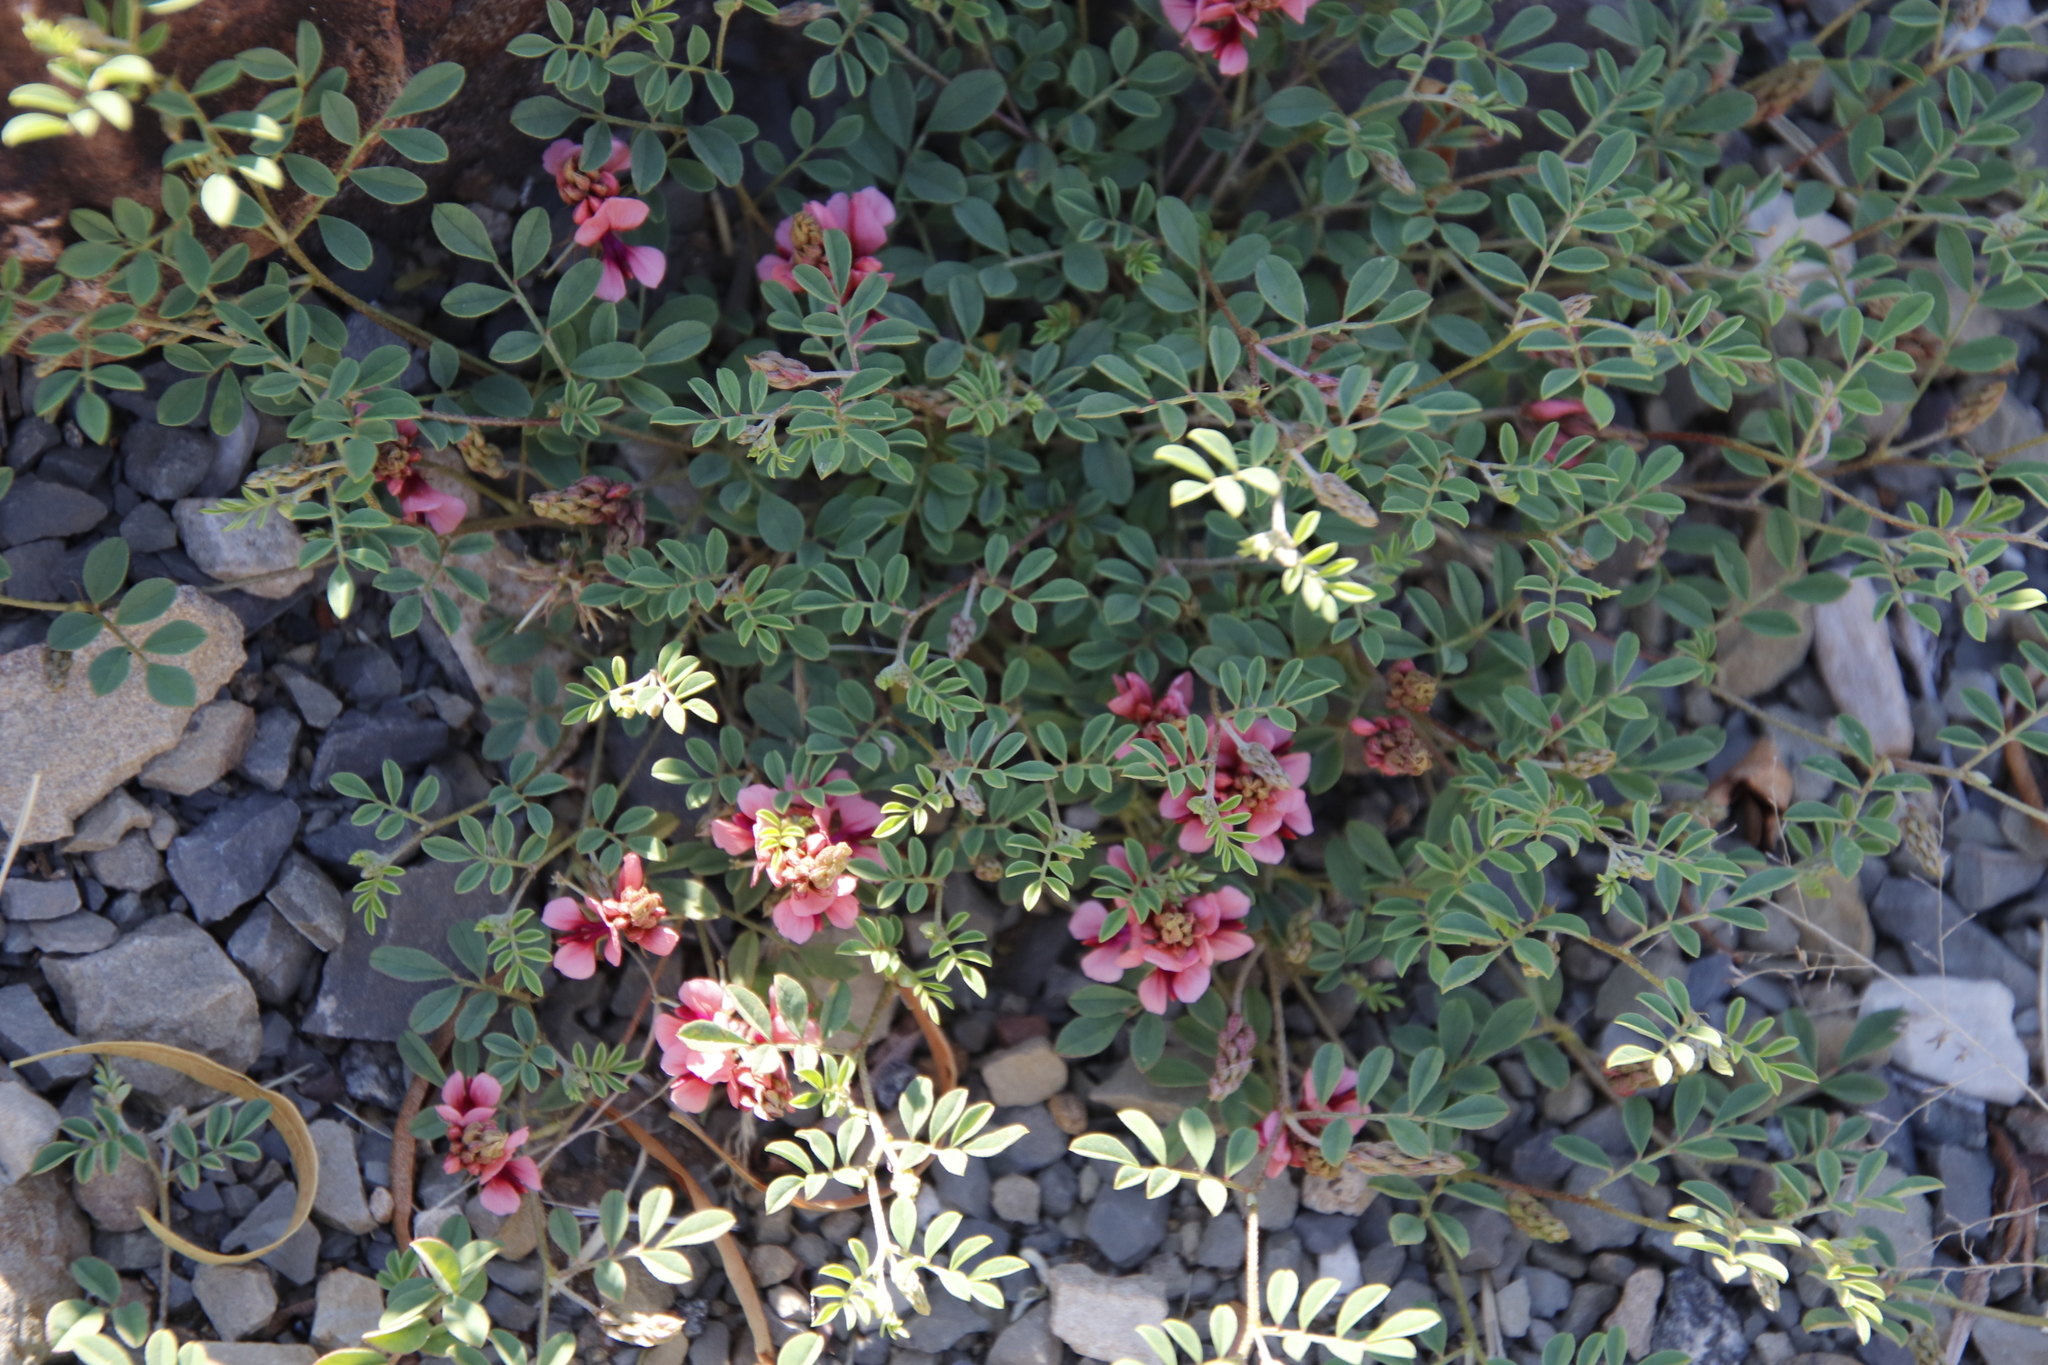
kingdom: Plantae
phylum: Tracheophyta
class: Magnoliopsida
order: Fabales
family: Fabaceae
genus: Indigofera
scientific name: Indigofera alternans
